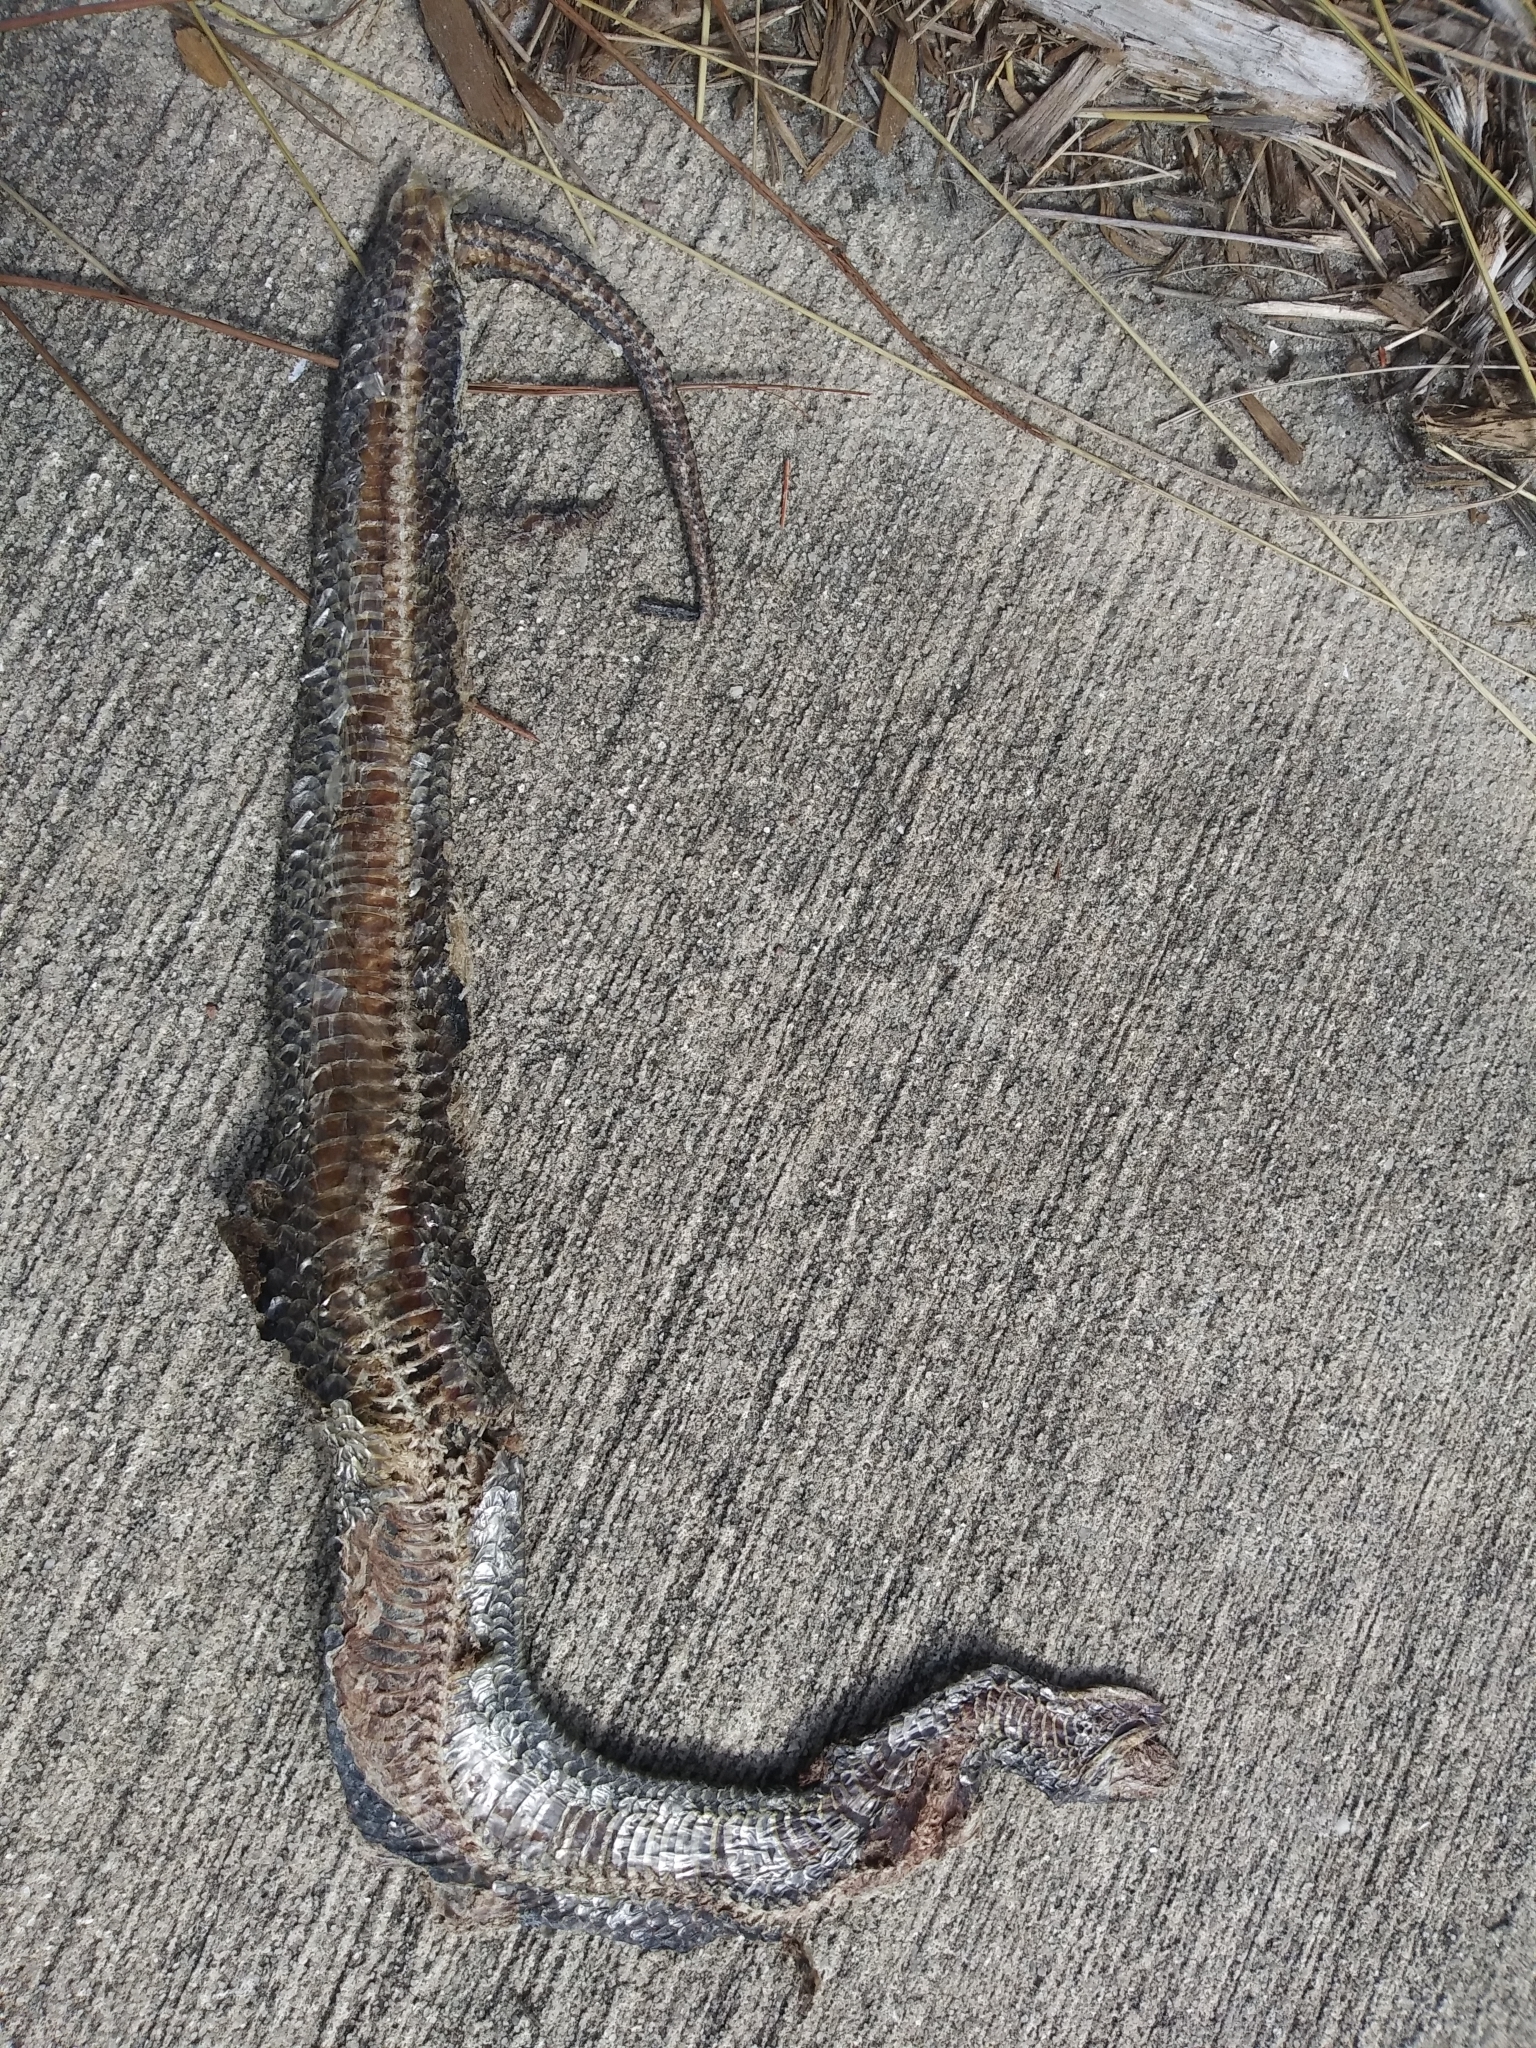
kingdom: Animalia
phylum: Chordata
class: Squamata
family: Colubridae
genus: Liodytes
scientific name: Liodytes alleni
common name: Striped crayfish snake
